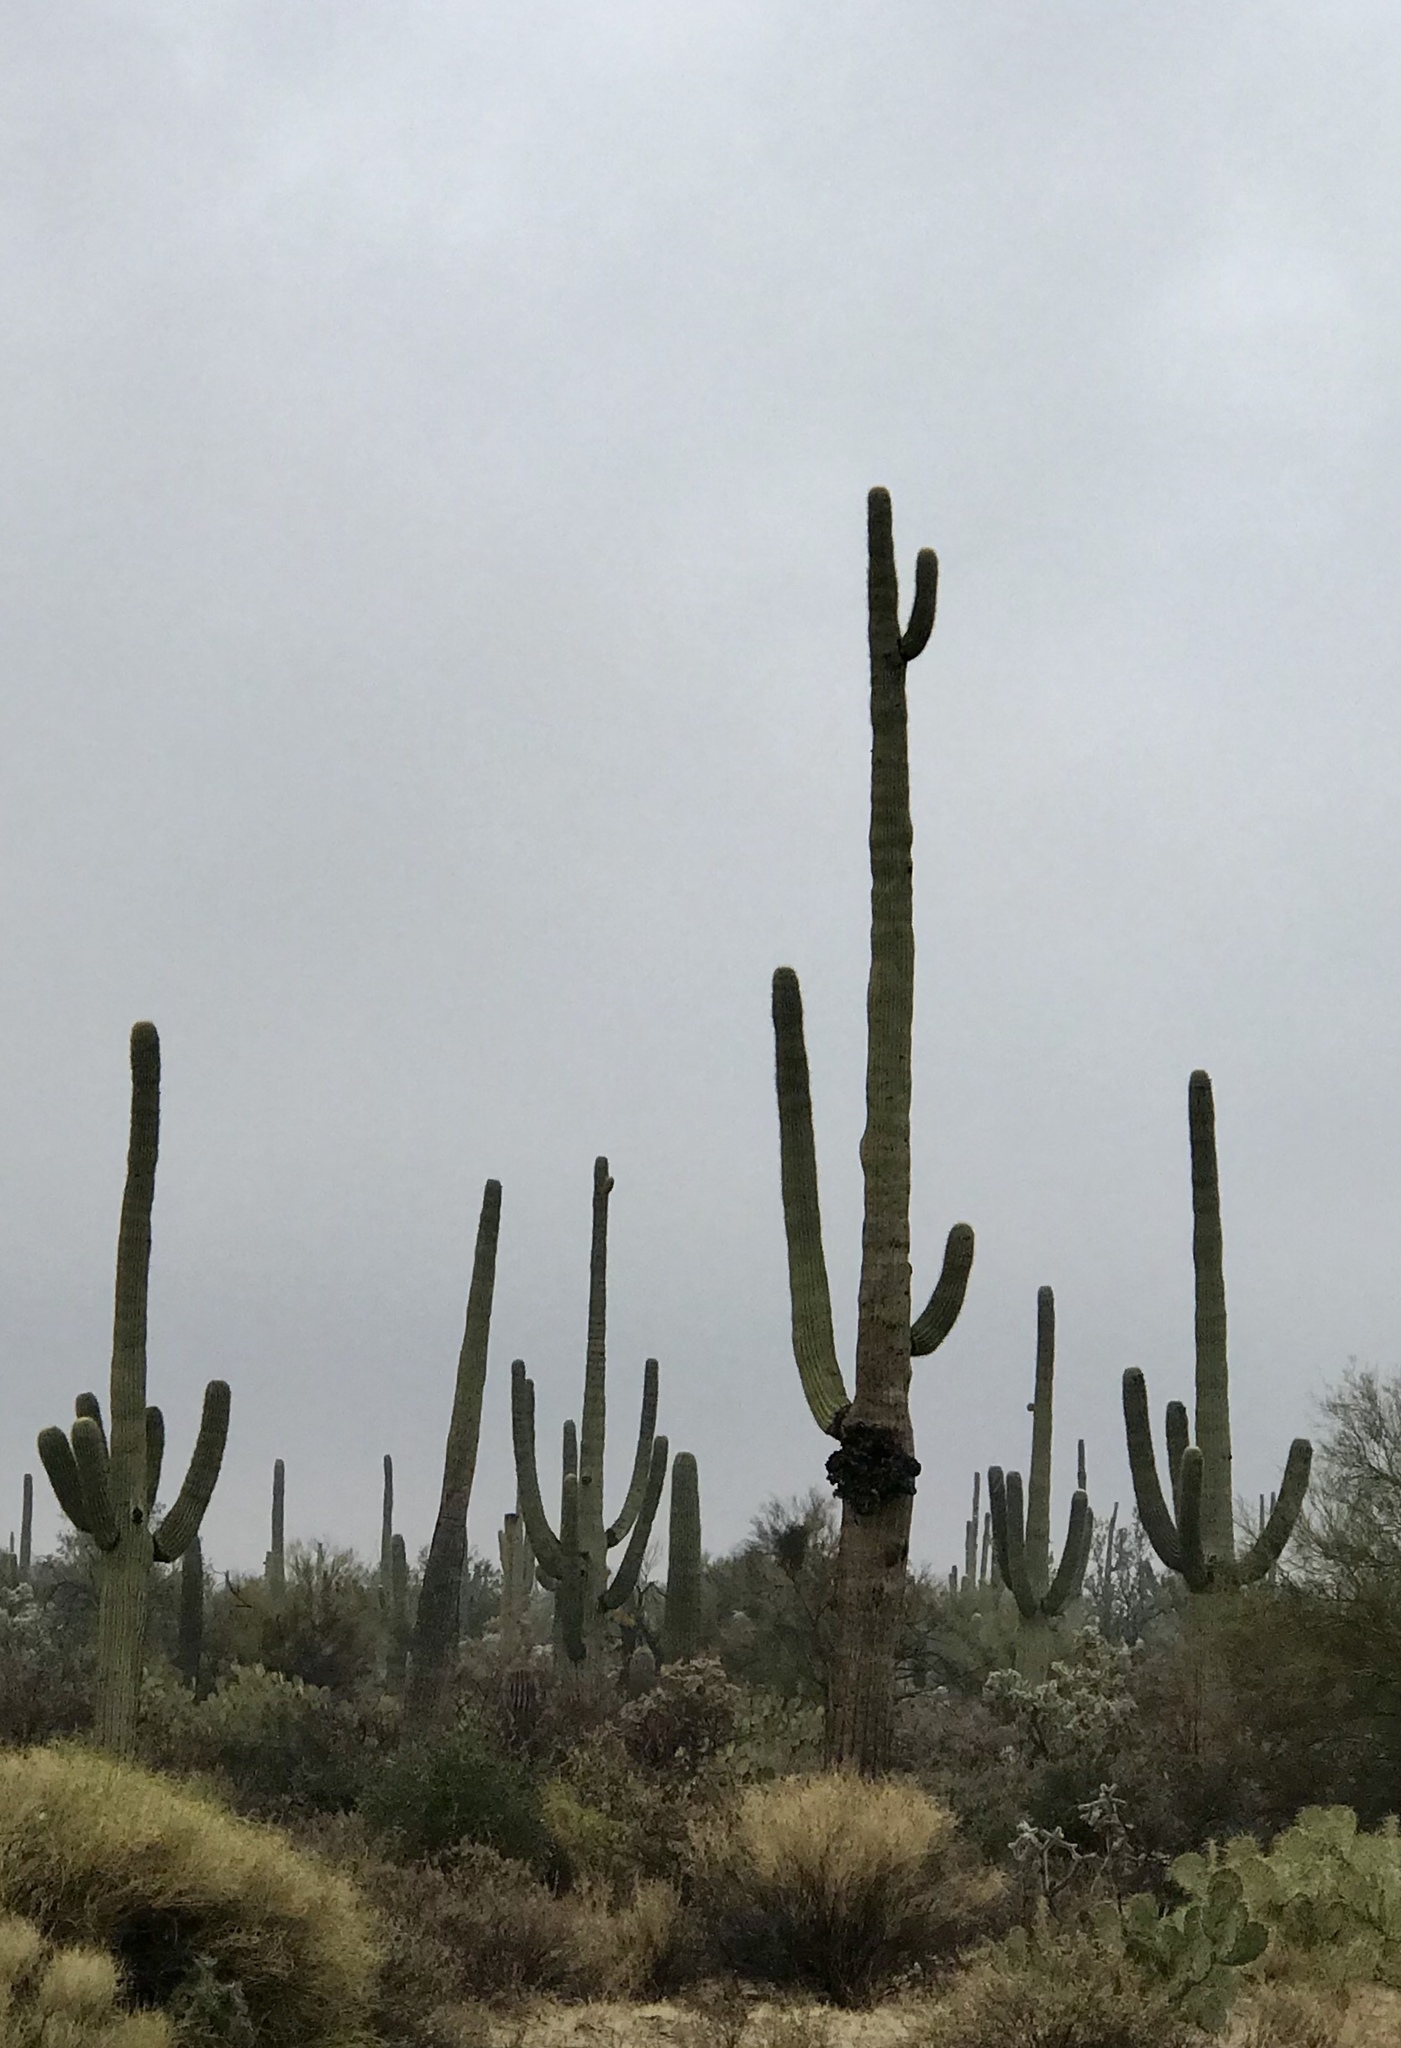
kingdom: Plantae
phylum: Tracheophyta
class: Magnoliopsida
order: Caryophyllales
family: Cactaceae
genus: Carnegiea
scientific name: Carnegiea gigantea
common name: Saguaro
